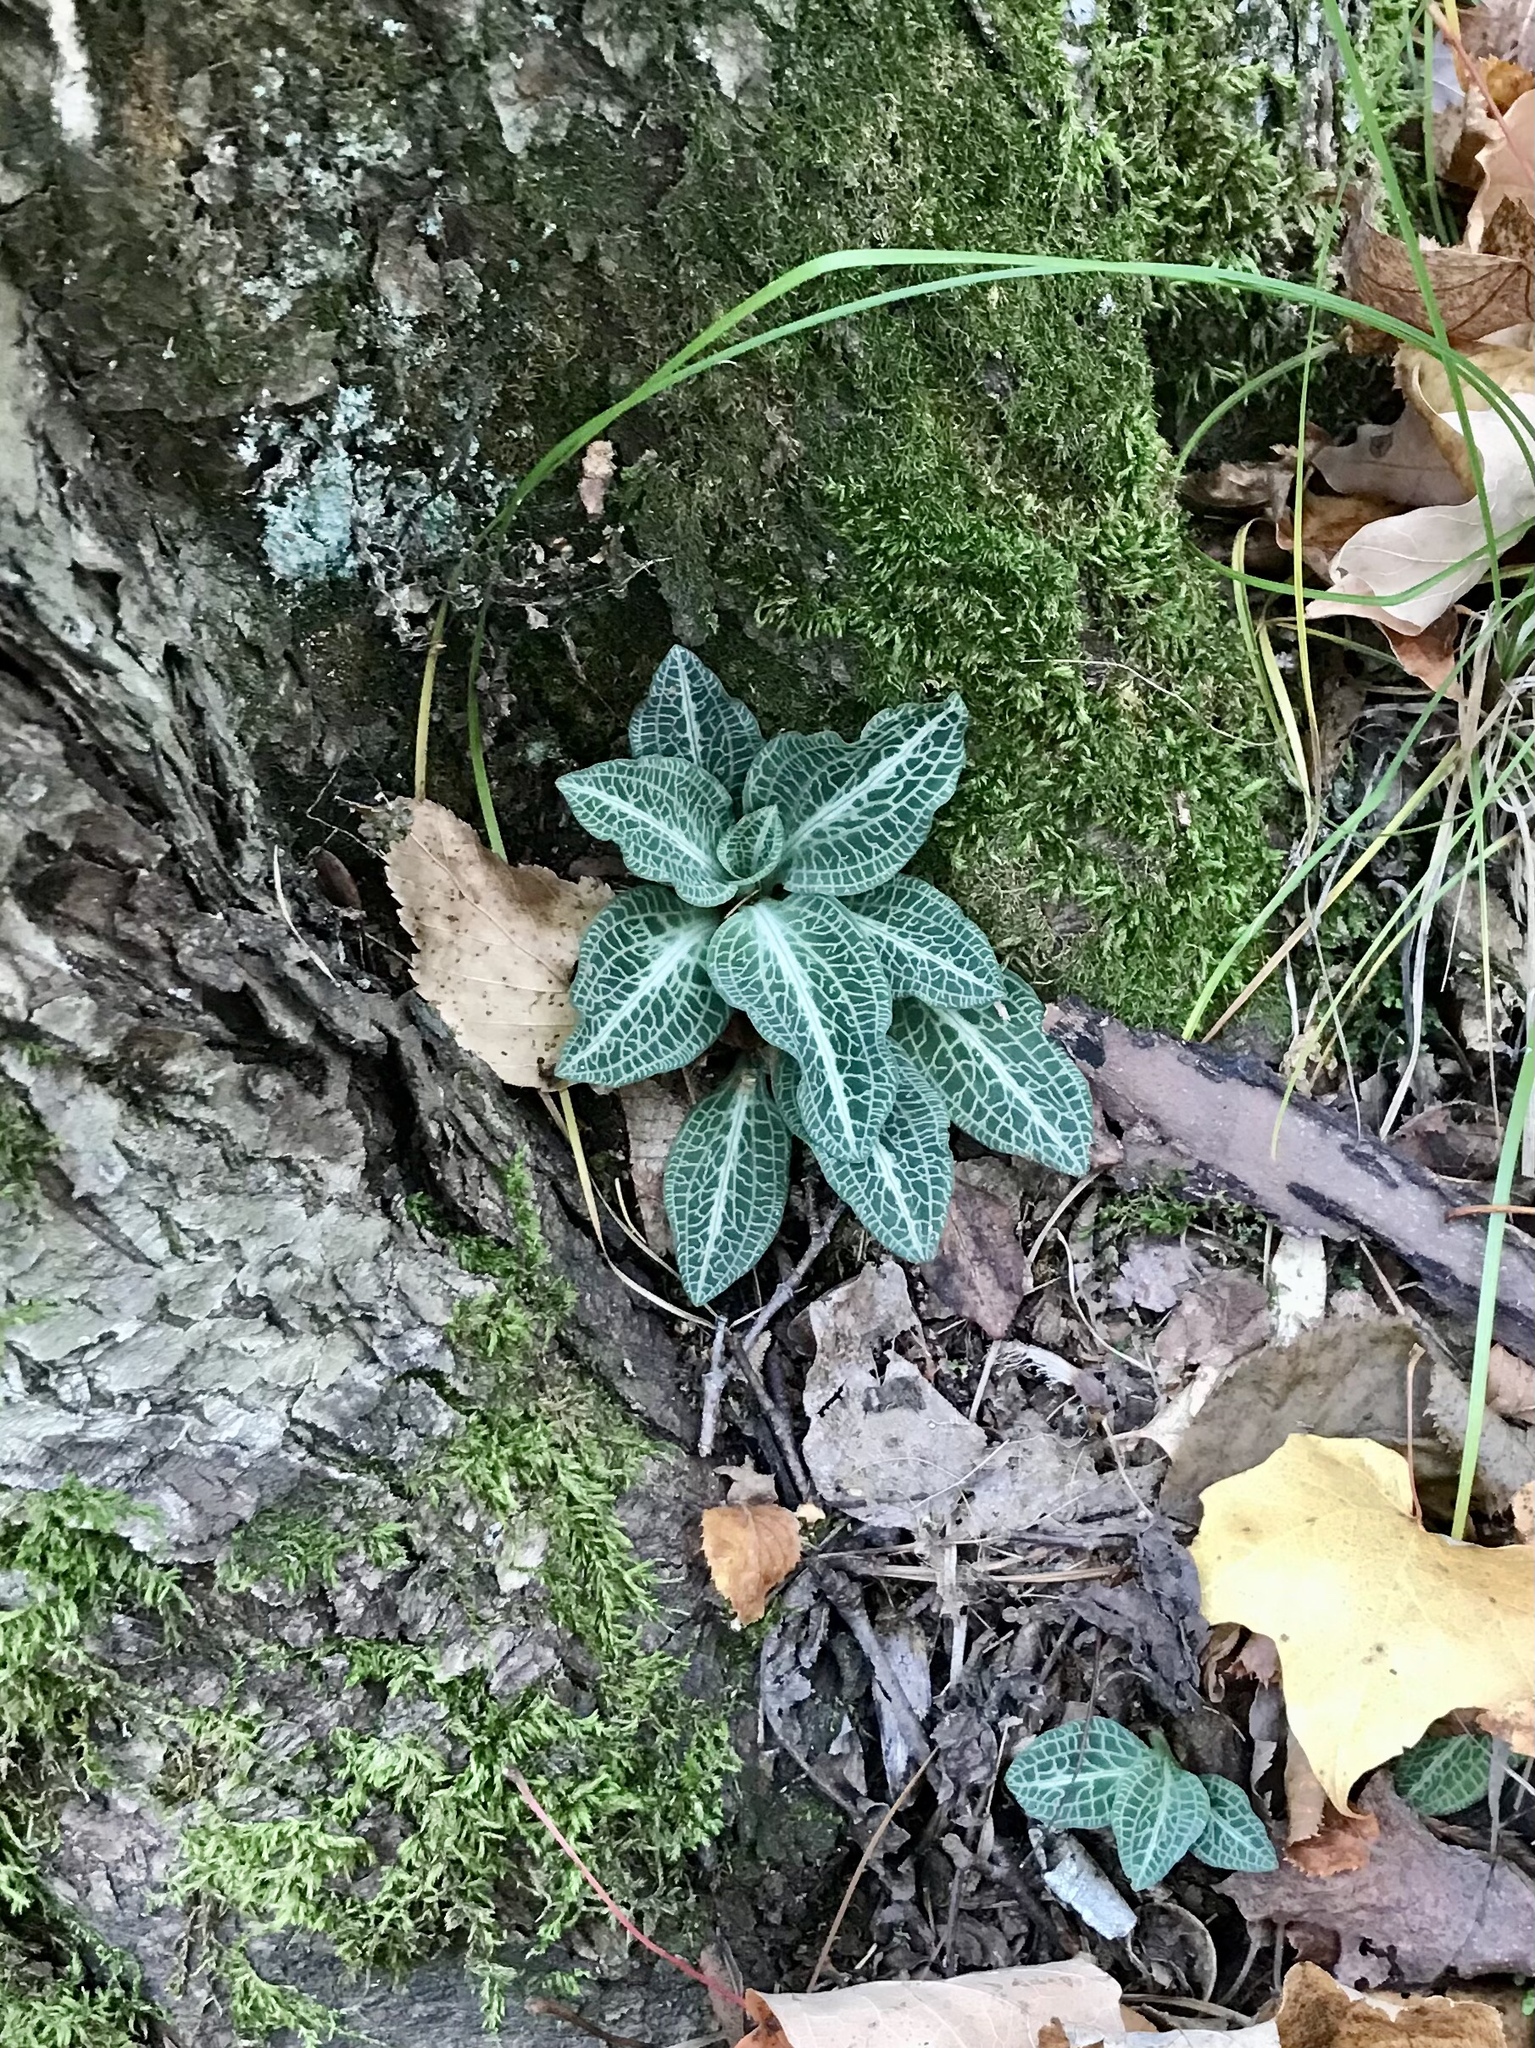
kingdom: Plantae
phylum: Tracheophyta
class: Liliopsida
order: Asparagales
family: Orchidaceae
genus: Goodyera
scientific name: Goodyera pubescens
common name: Downy rattlesnake-plantain
